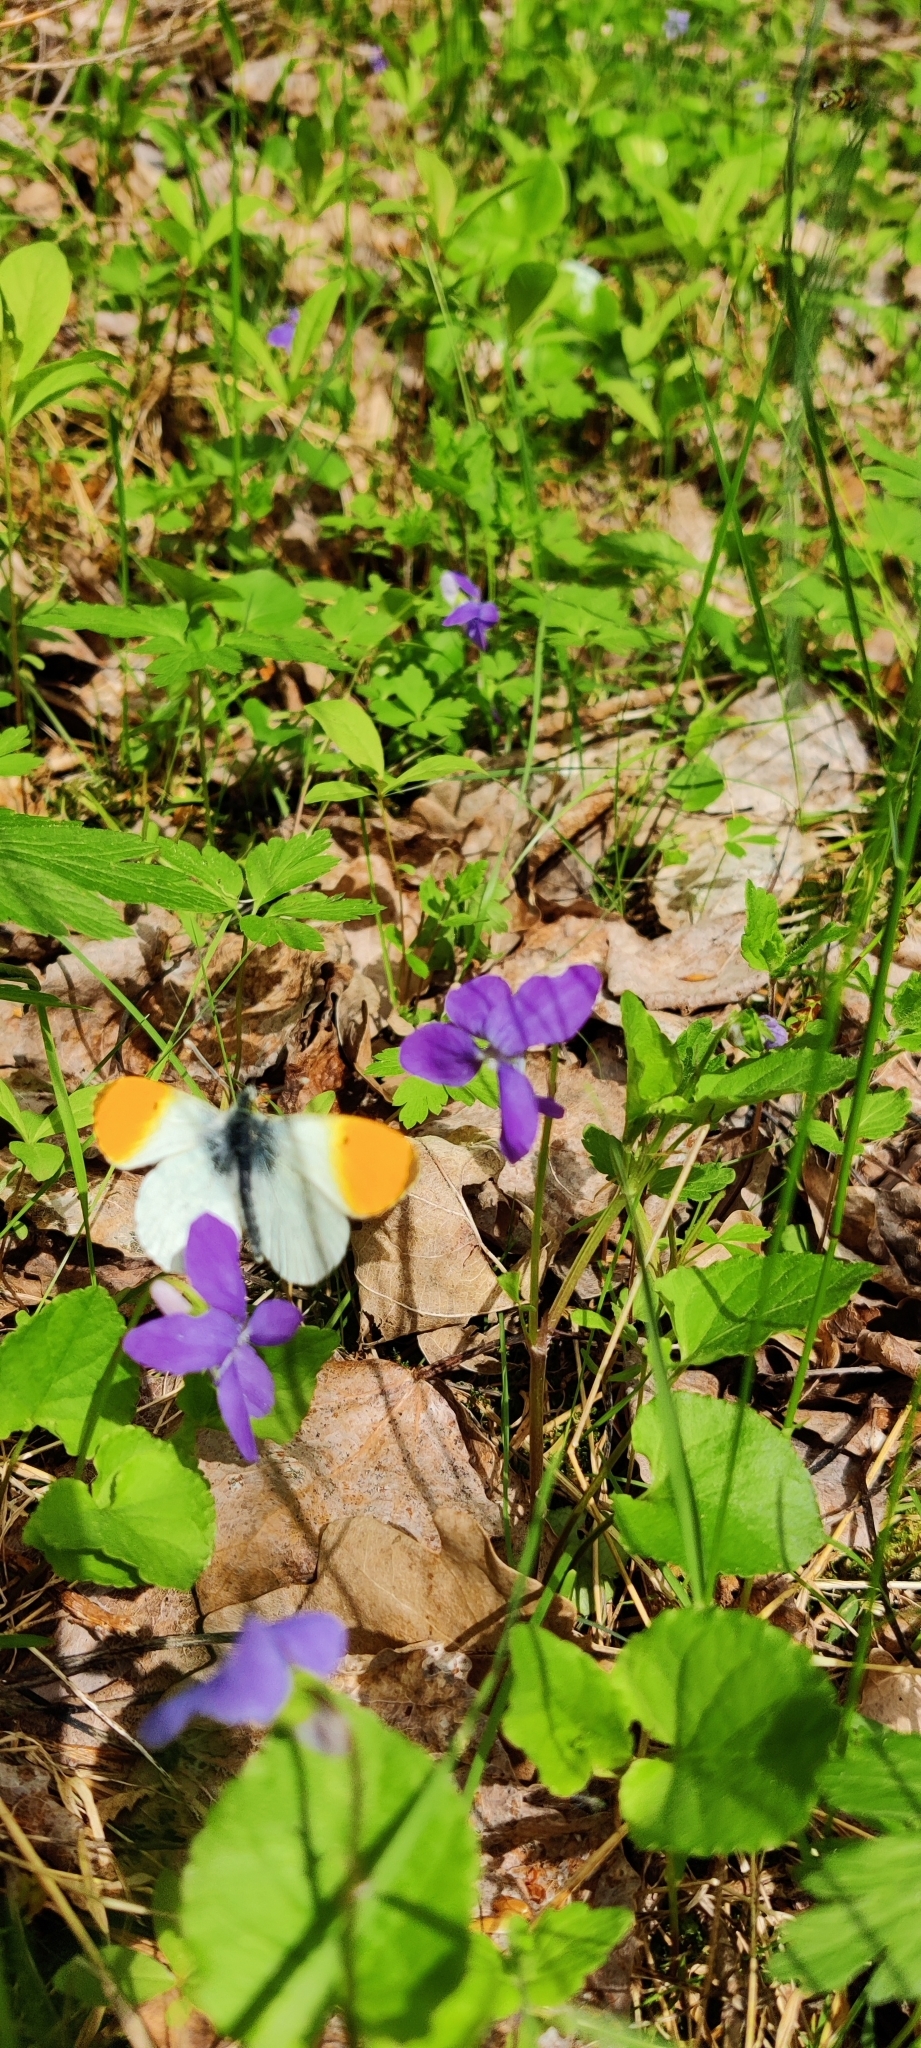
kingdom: Animalia
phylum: Arthropoda
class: Insecta
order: Lepidoptera
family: Pieridae
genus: Anthocharis
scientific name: Anthocharis cardamines
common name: Orange-tip
